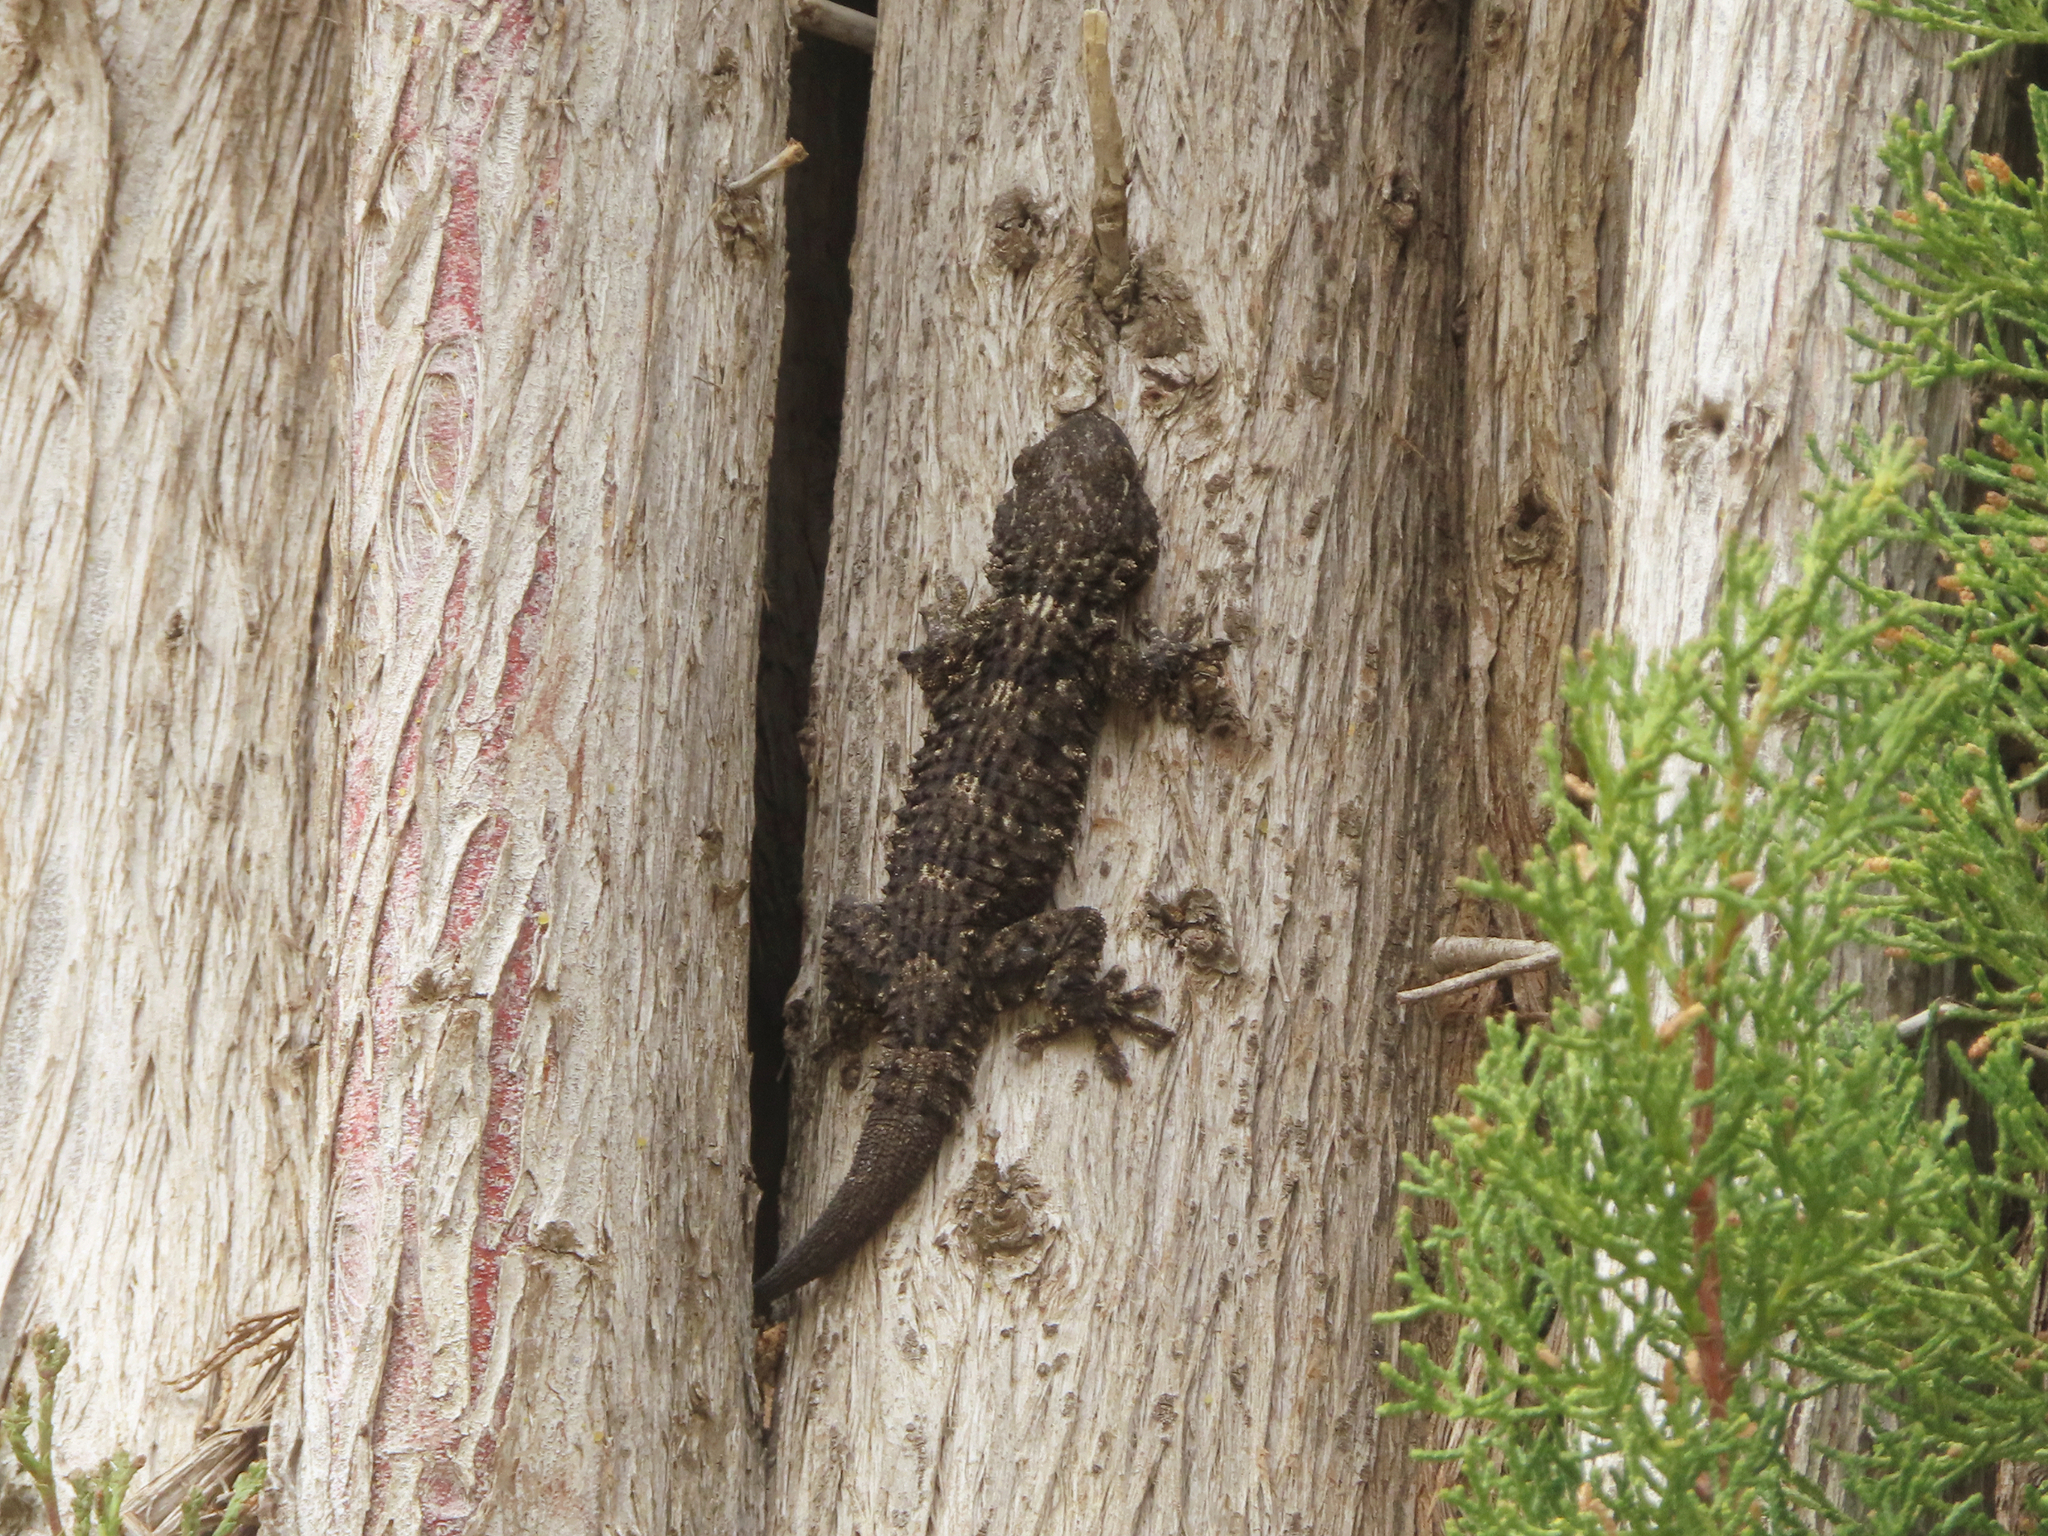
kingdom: Animalia
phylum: Chordata
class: Squamata
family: Phyllodactylidae
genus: Tarentola
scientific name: Tarentola mauritanica
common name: Moorish gecko
